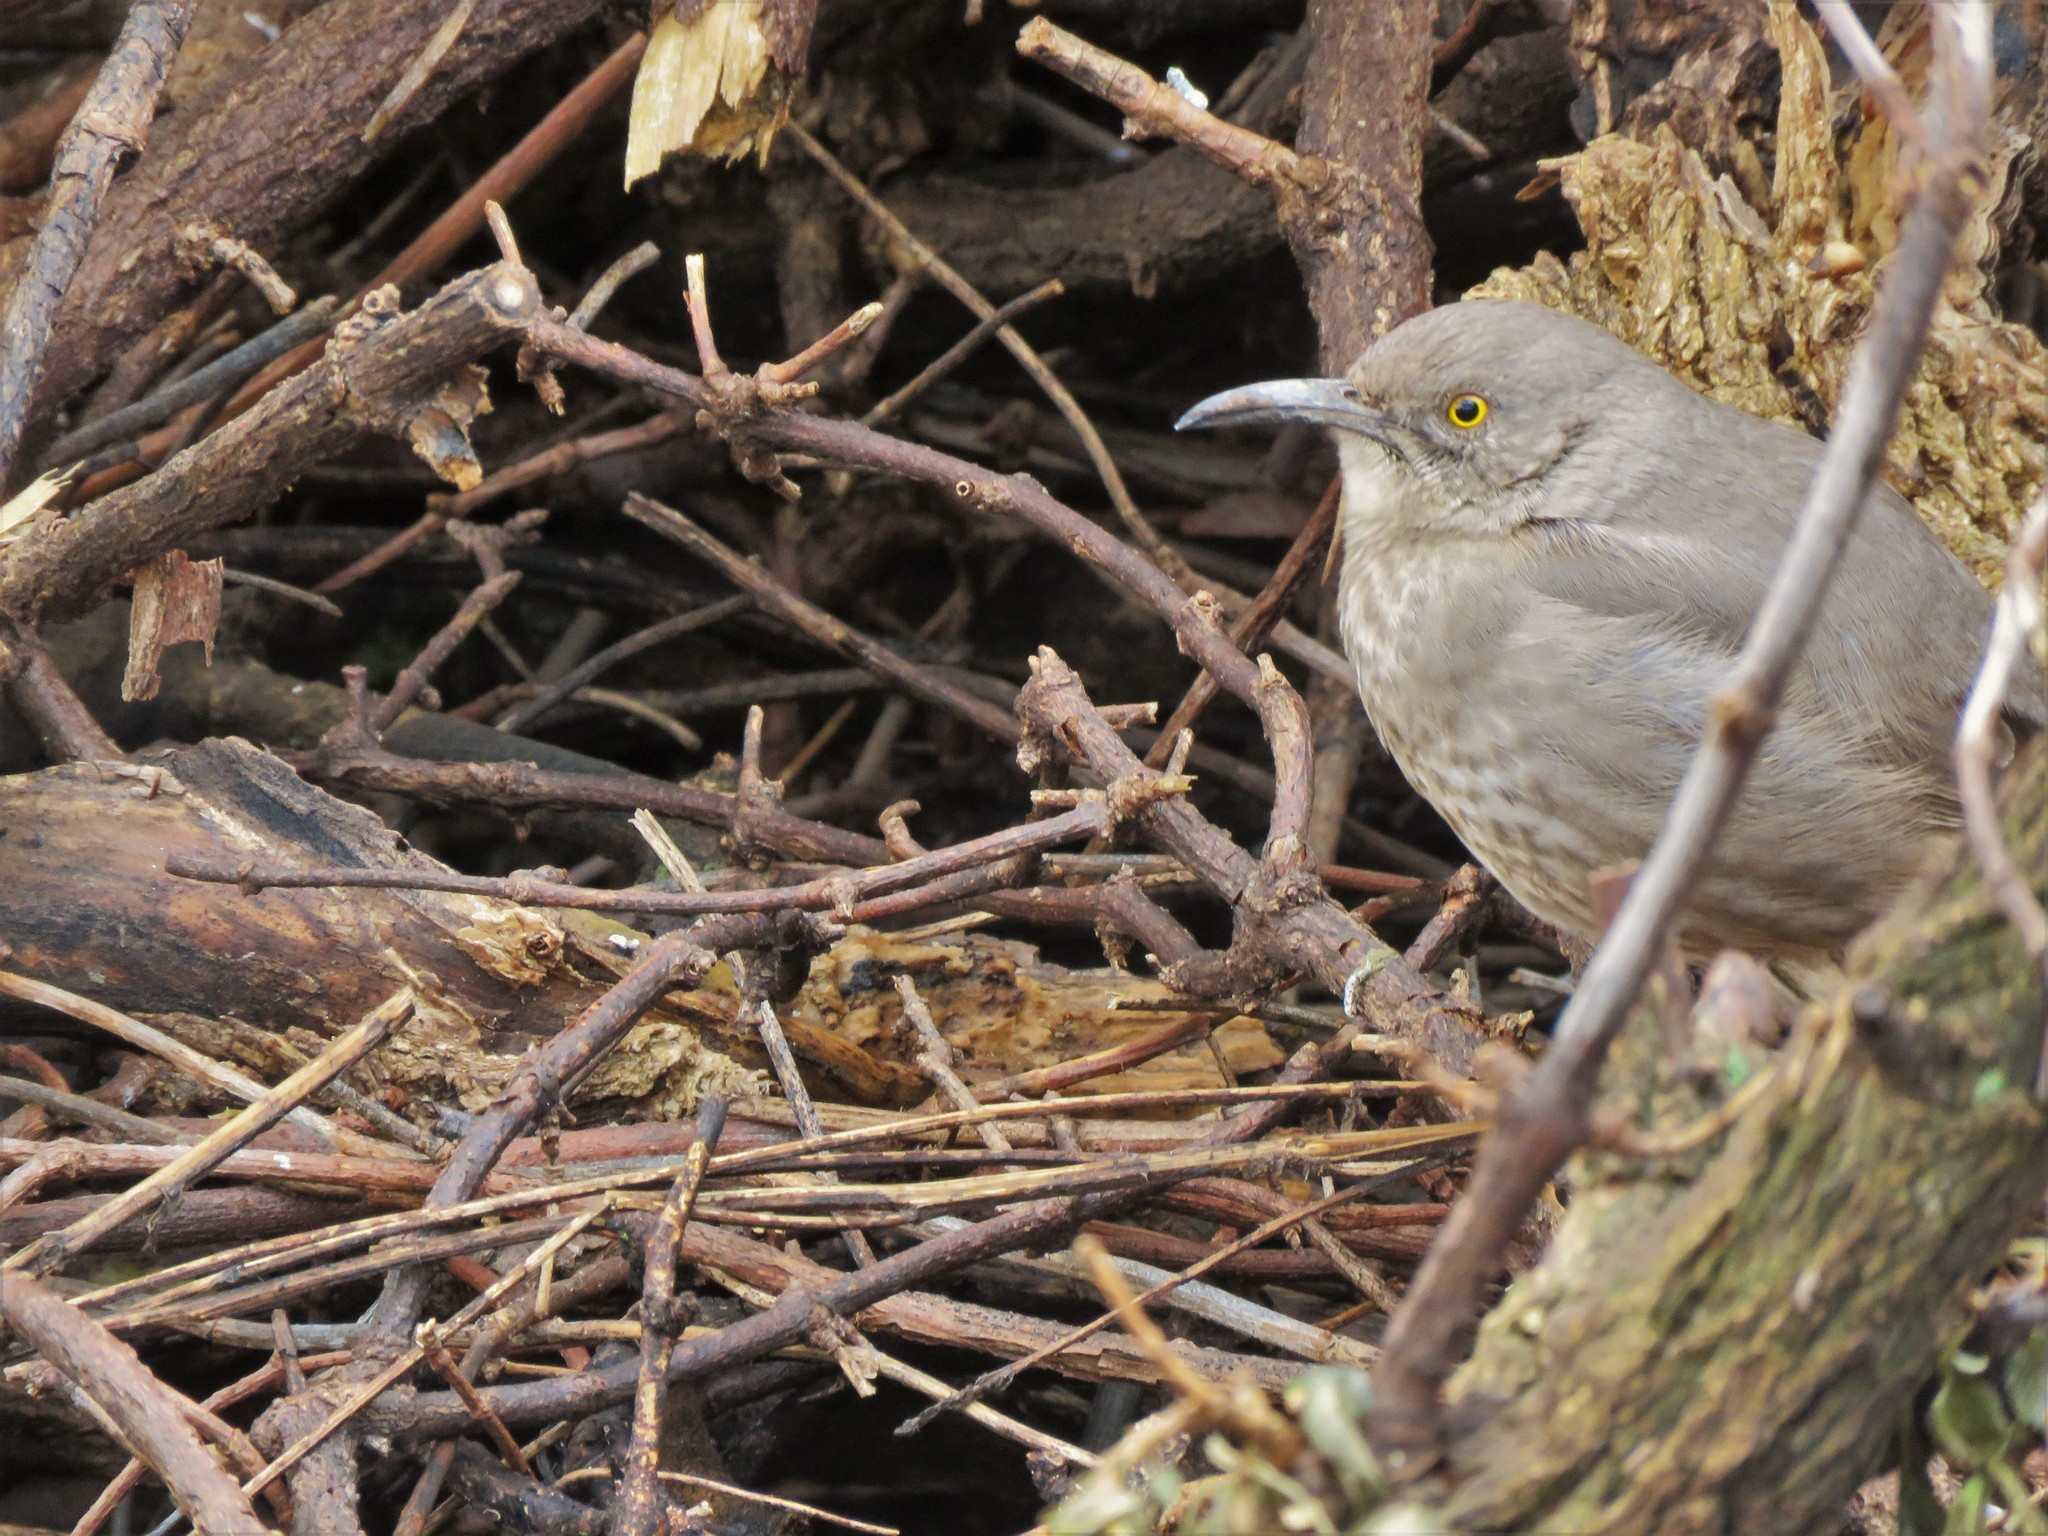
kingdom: Animalia
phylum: Chordata
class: Aves
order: Passeriformes
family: Mimidae
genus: Toxostoma
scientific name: Toxostoma curvirostre
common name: Curve-billed thrasher
